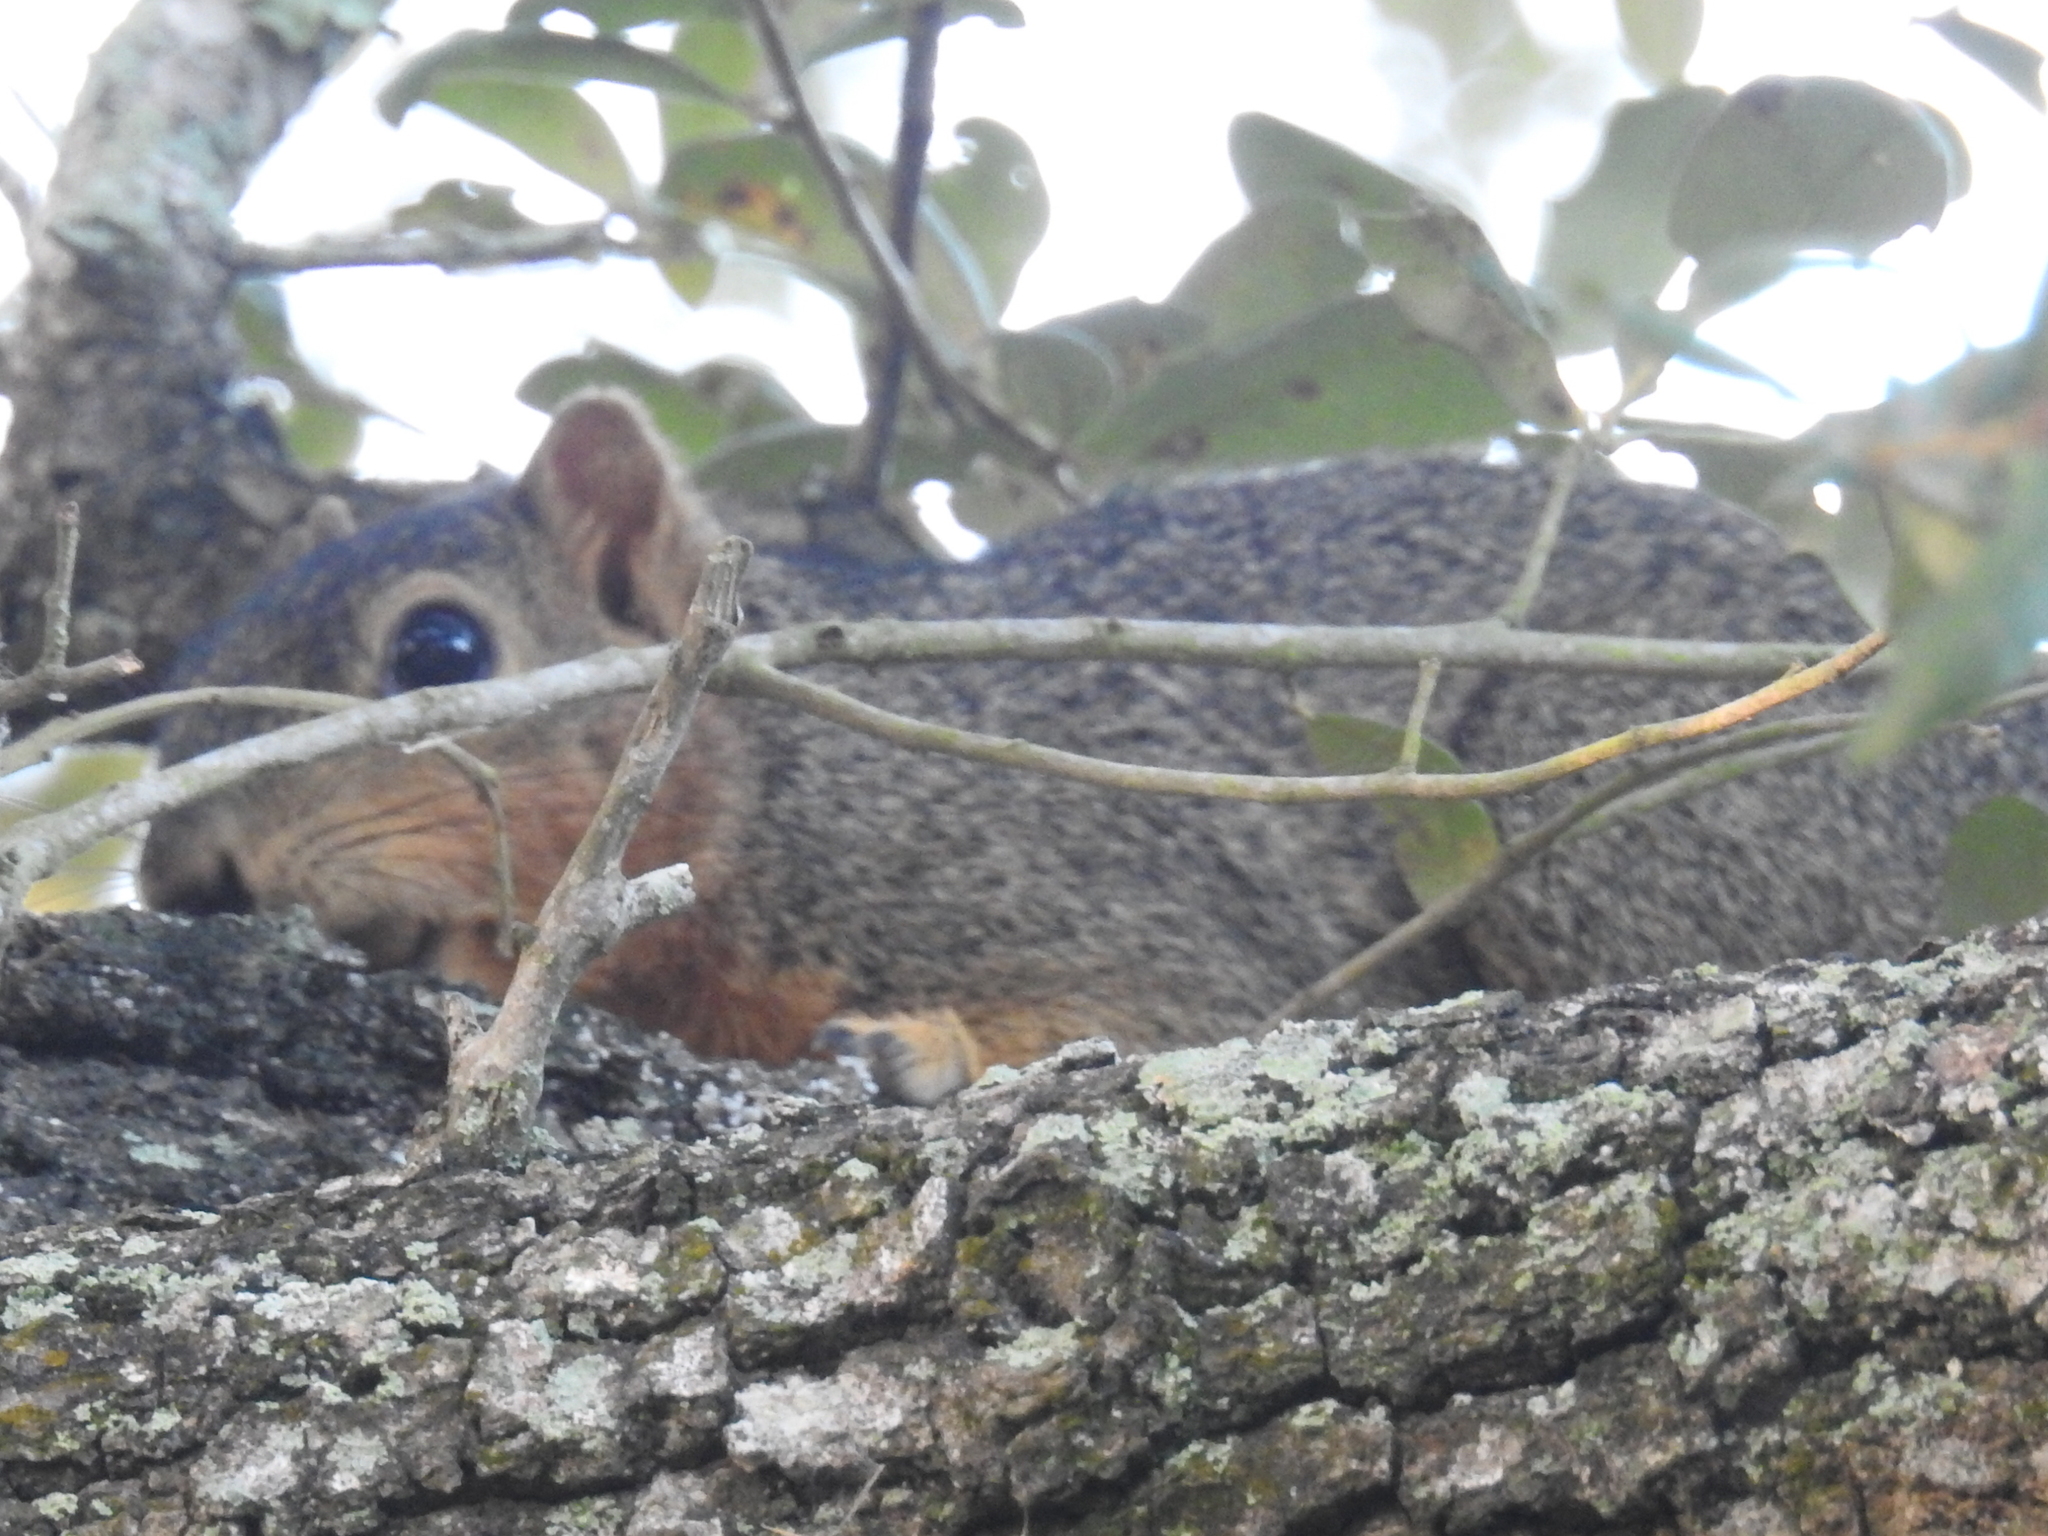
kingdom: Animalia
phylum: Chordata
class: Mammalia
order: Rodentia
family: Sciuridae
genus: Sciurus
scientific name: Sciurus niger
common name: Fox squirrel
